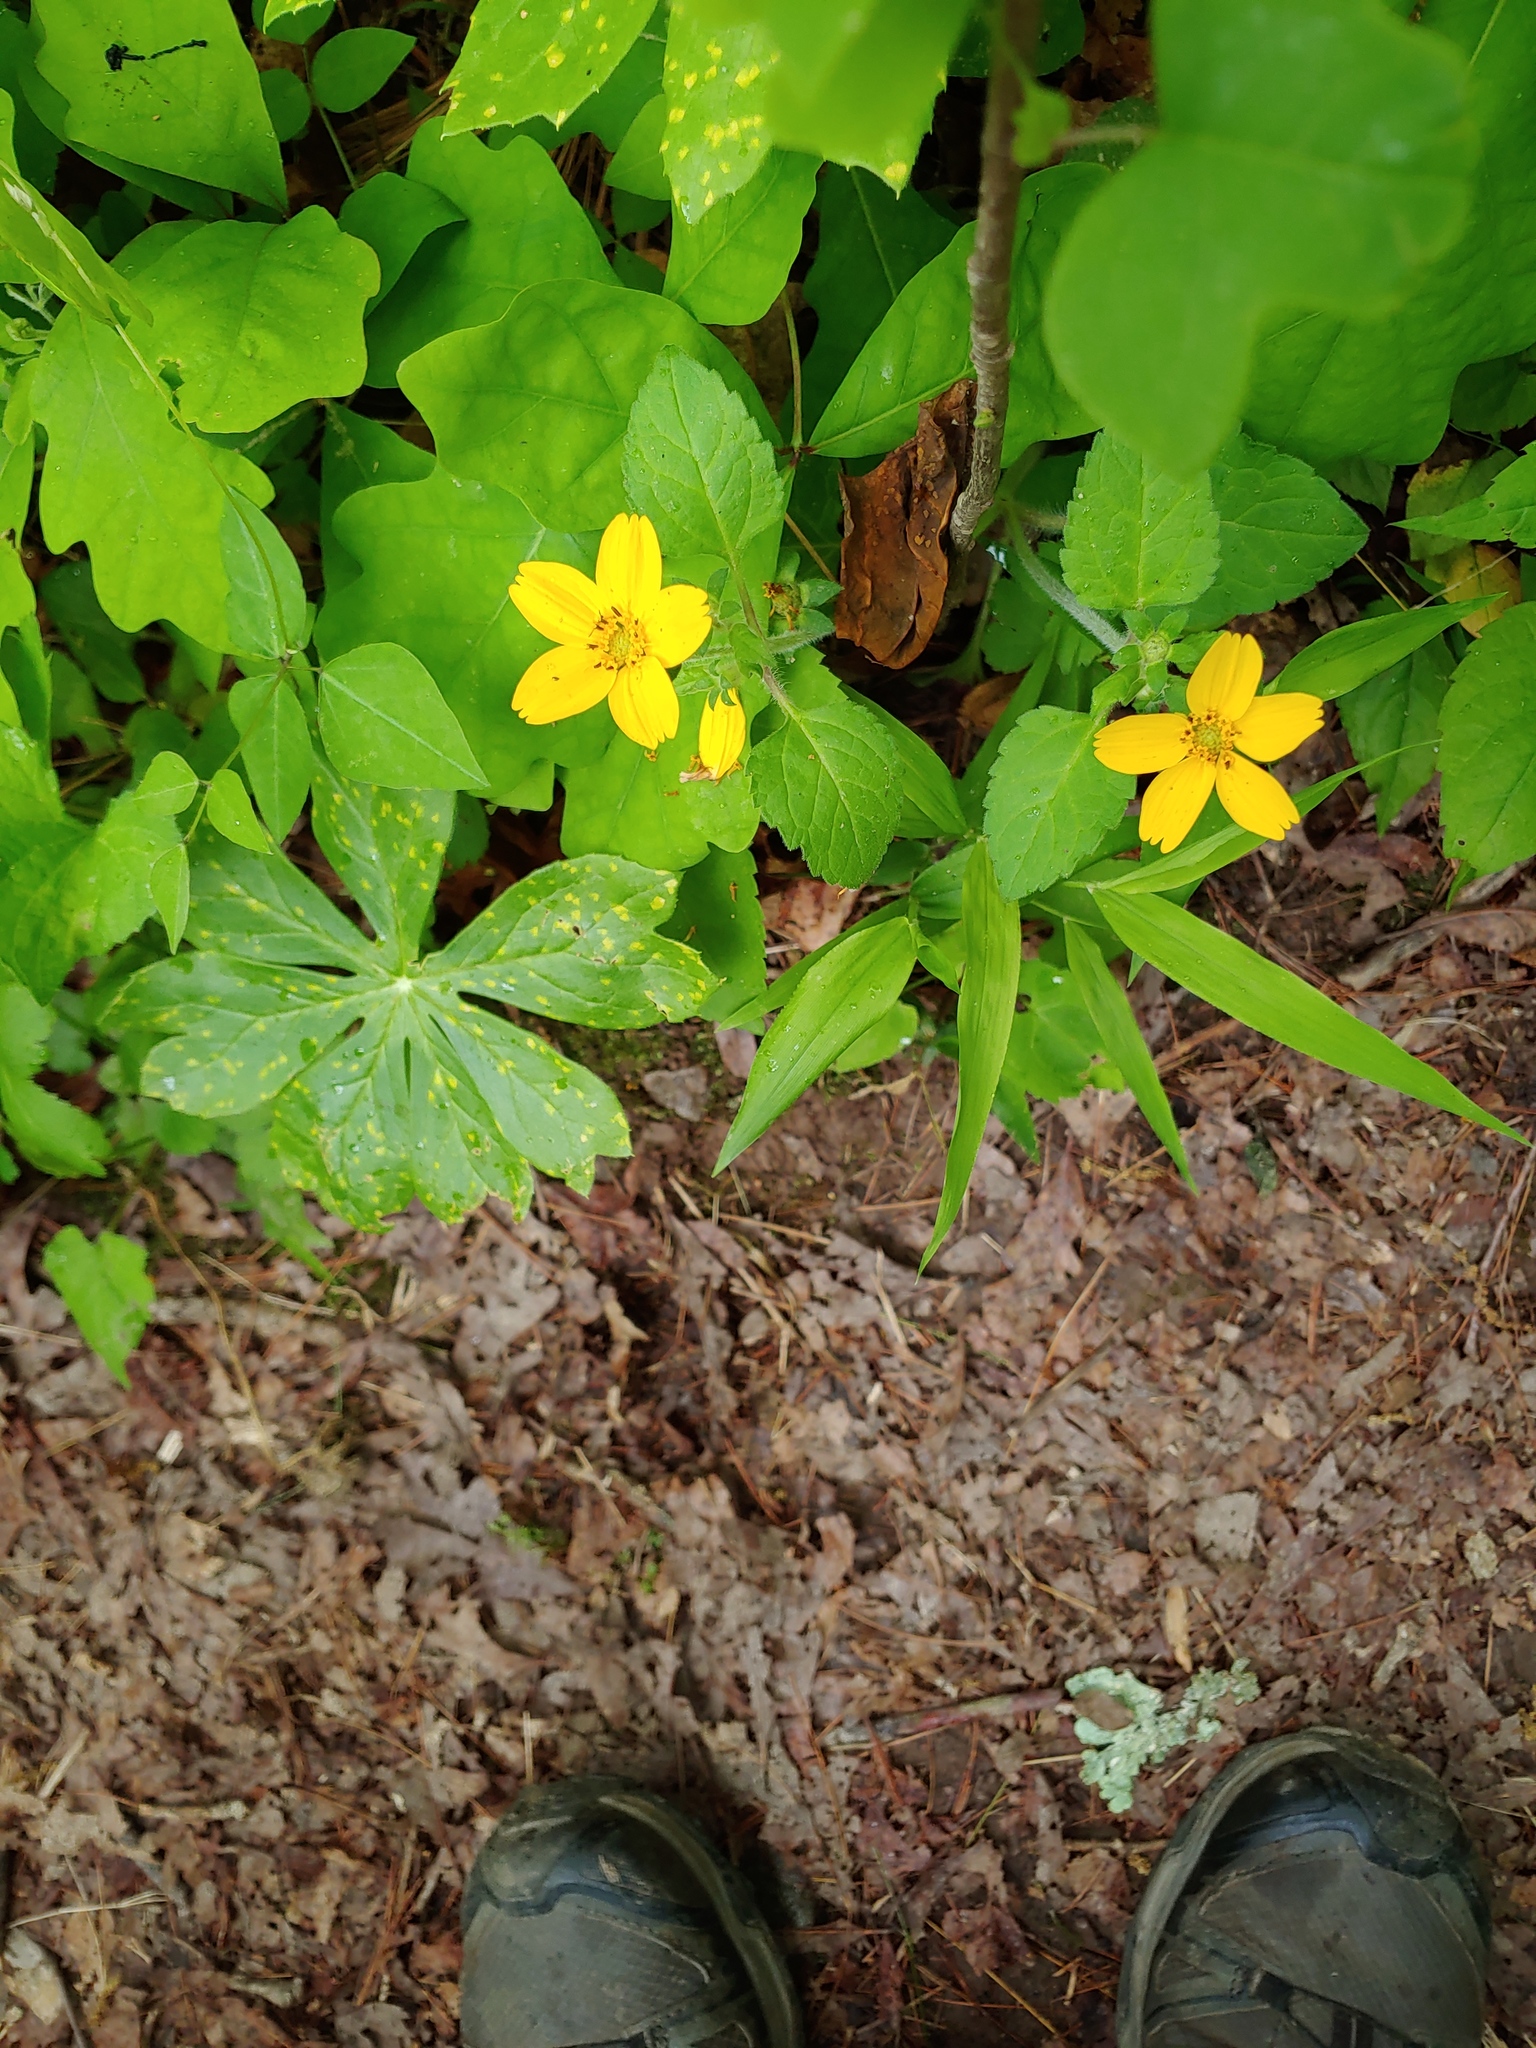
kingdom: Plantae
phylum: Tracheophyta
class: Magnoliopsida
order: Asterales
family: Asteraceae
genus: Chrysogonum
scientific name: Chrysogonum virginianum
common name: Golden-knee
